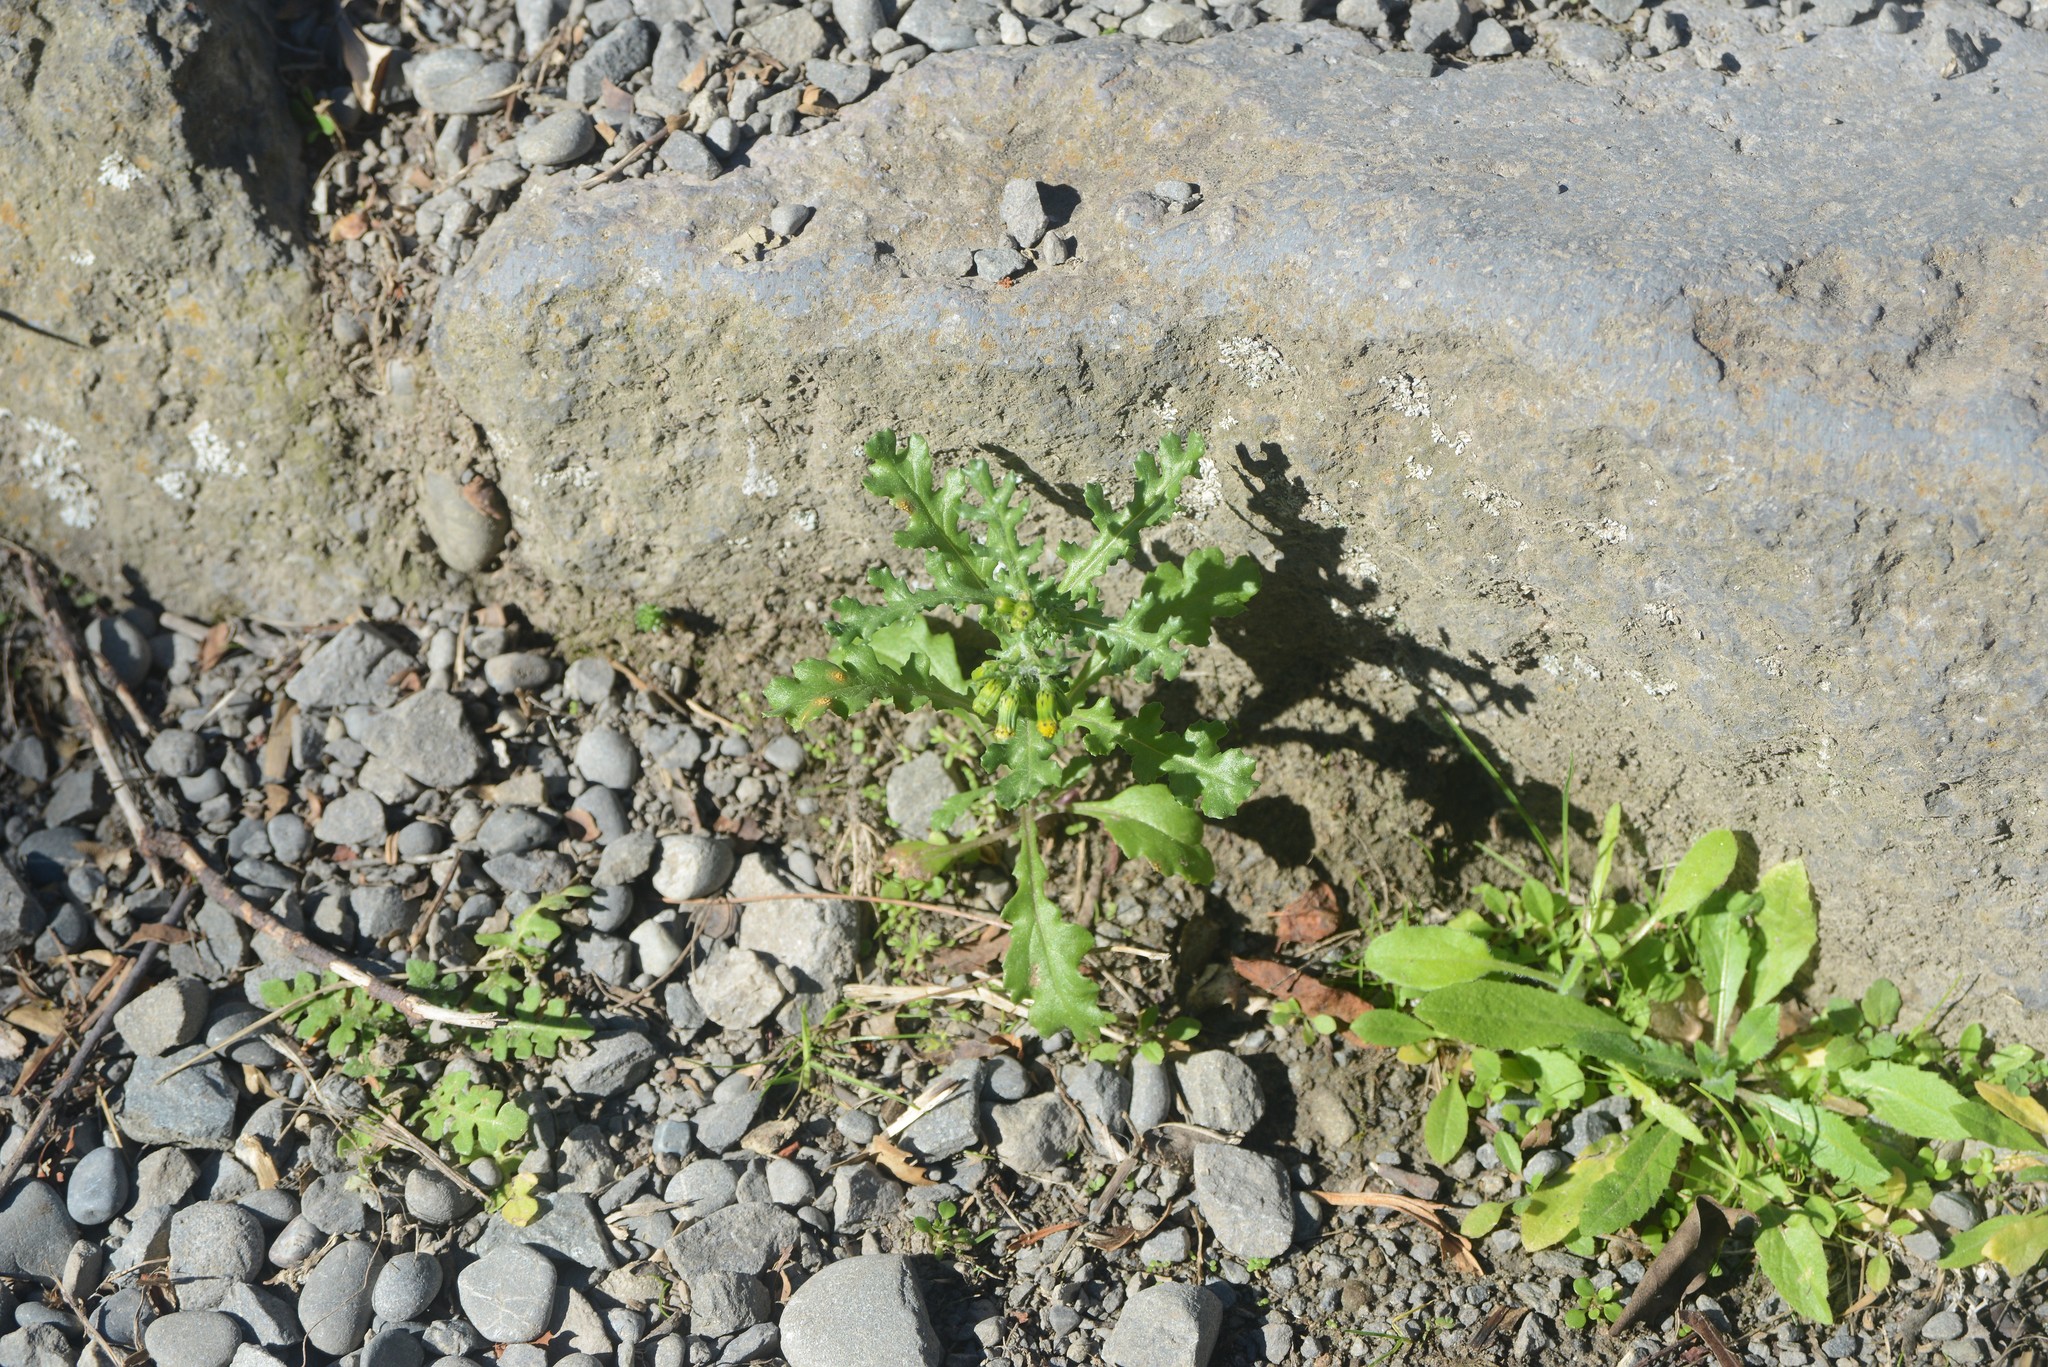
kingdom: Plantae
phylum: Tracheophyta
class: Magnoliopsida
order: Asterales
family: Asteraceae
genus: Senecio
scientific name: Senecio vulgaris
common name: Old-man-in-the-spring
